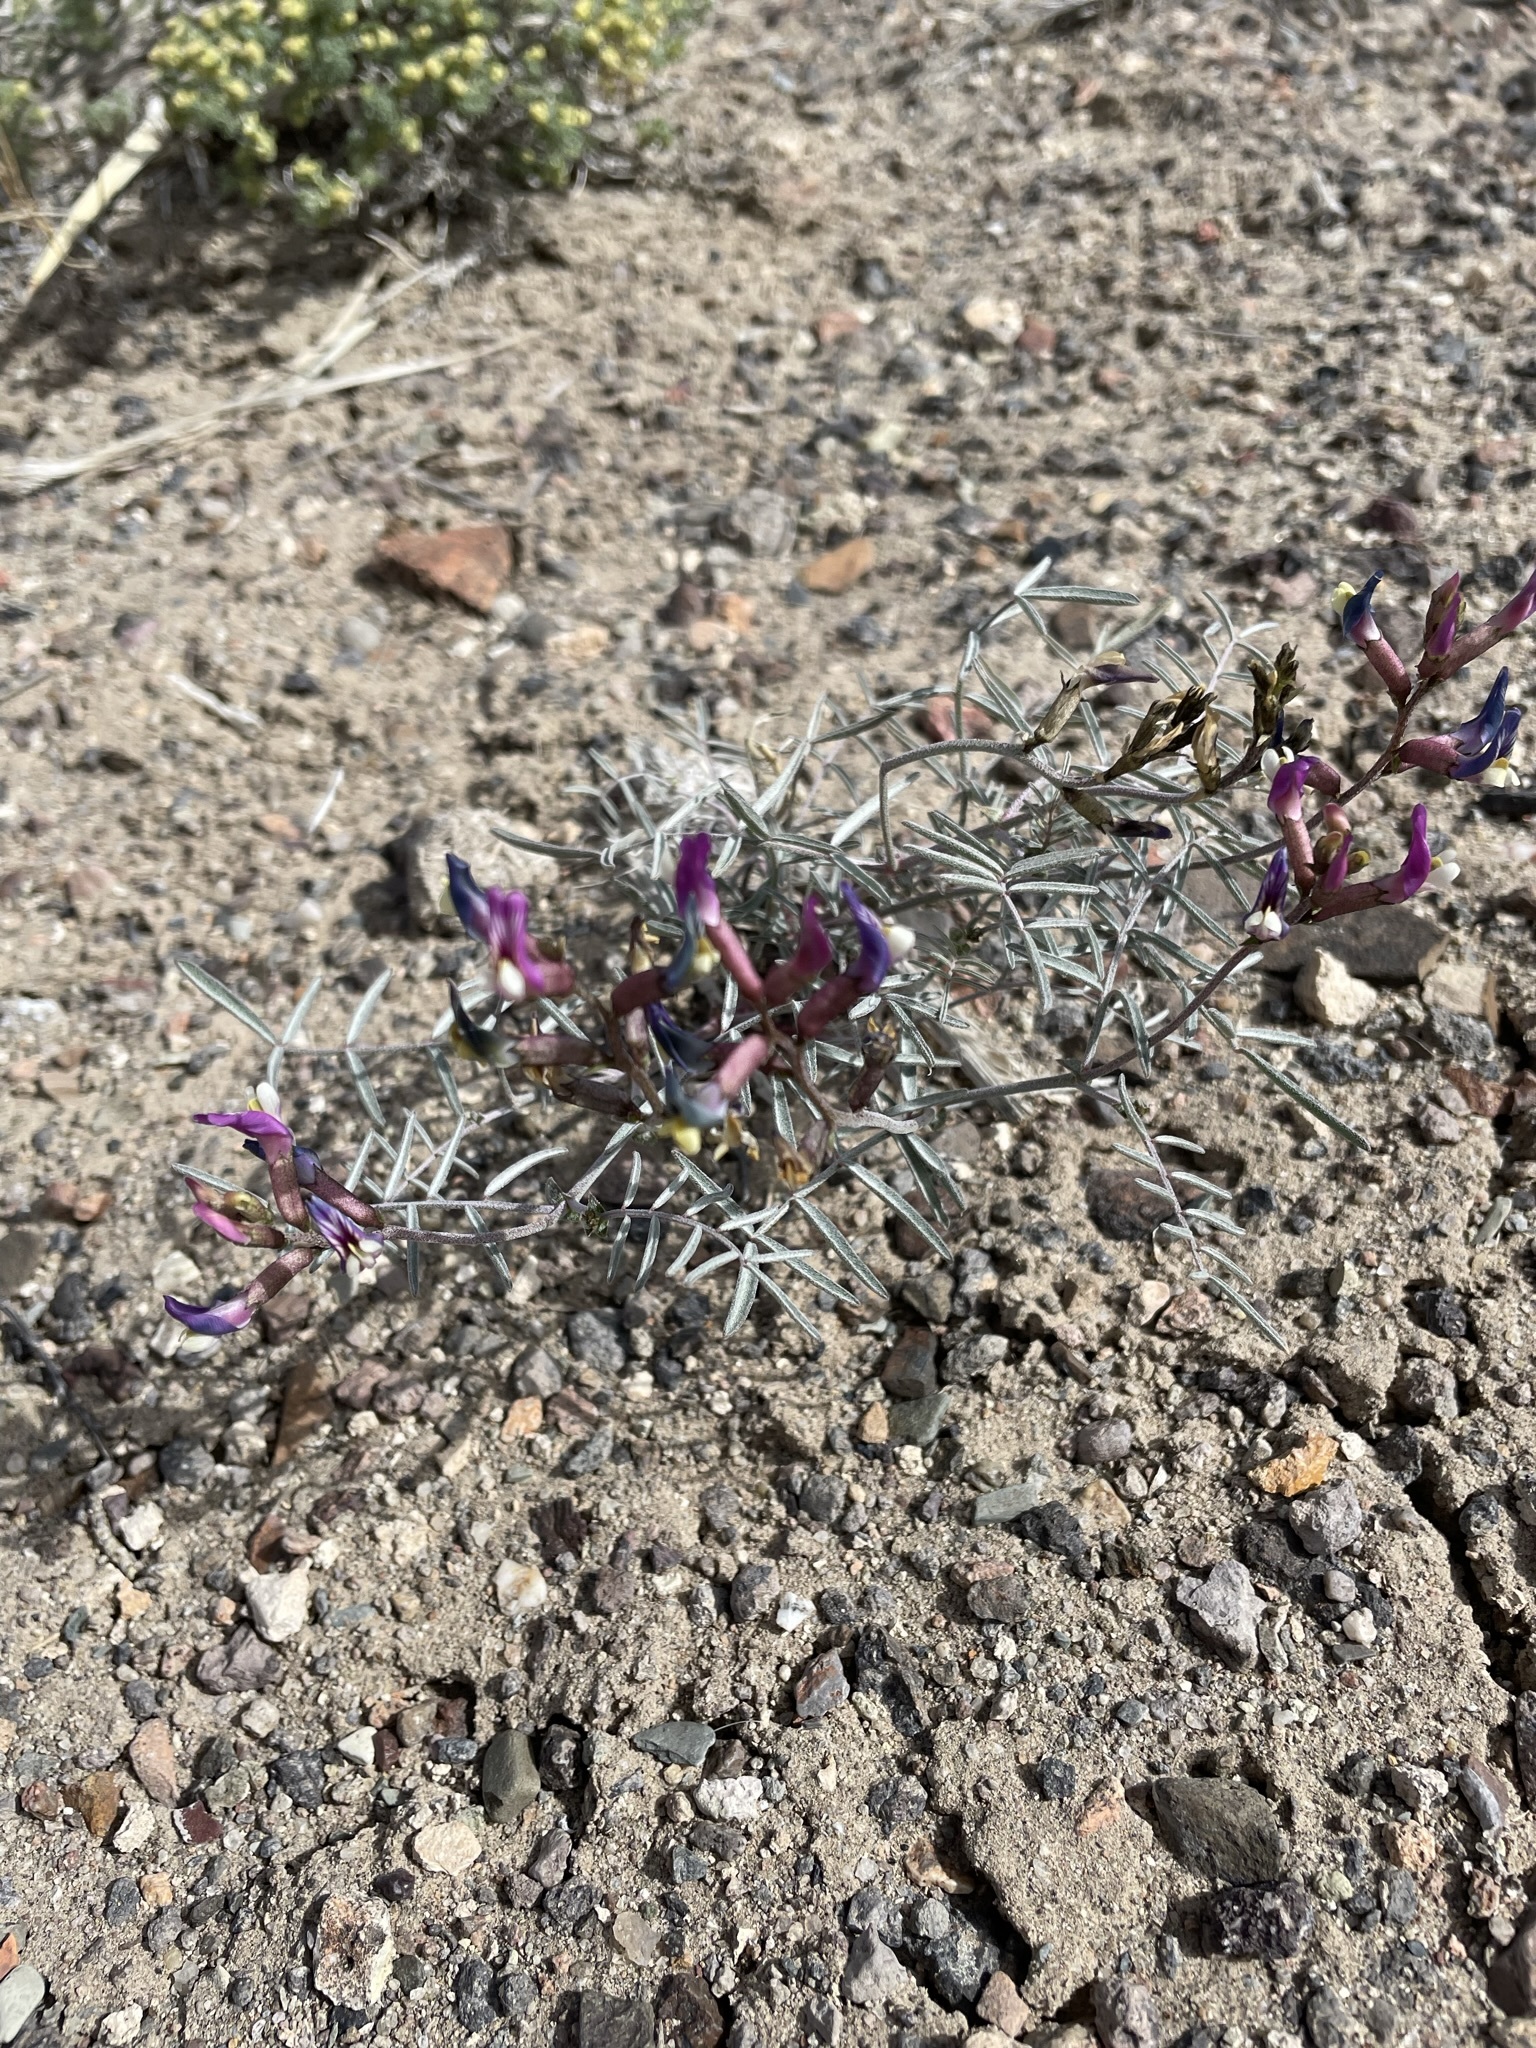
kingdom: Plantae
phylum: Tracheophyta
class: Magnoliopsida
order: Fabales
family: Fabaceae
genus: Astragalus
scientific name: Astragalus casei
